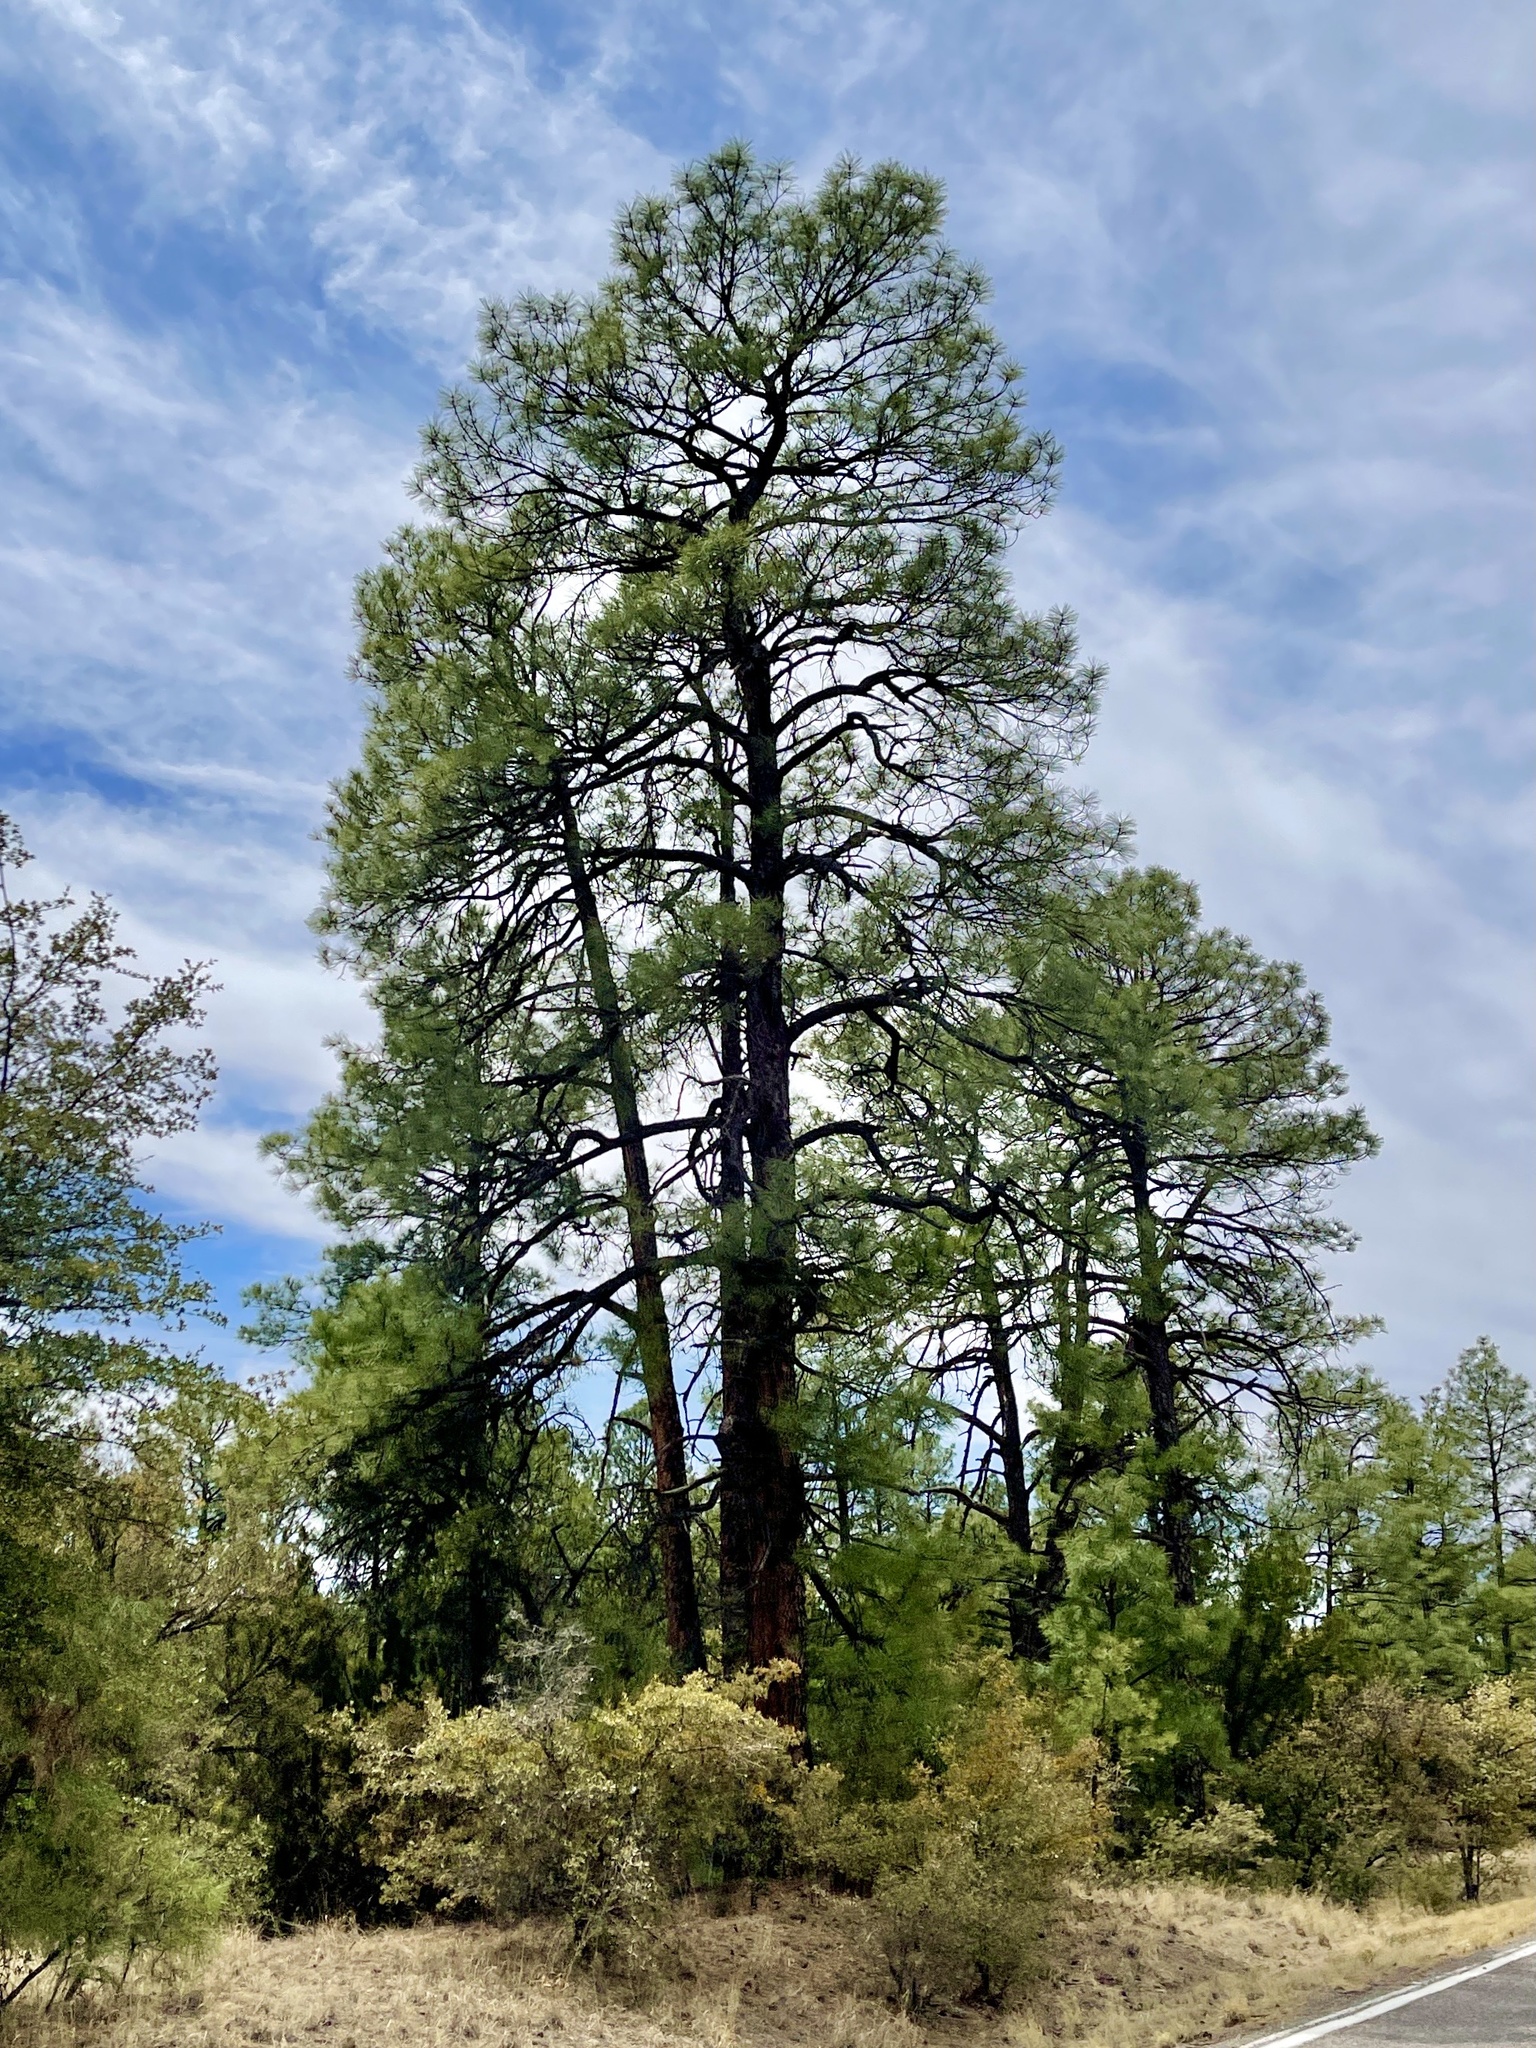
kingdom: Plantae
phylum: Tracheophyta
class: Pinopsida
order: Pinales
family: Pinaceae
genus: Pinus
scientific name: Pinus ponderosa
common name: Western yellow-pine
